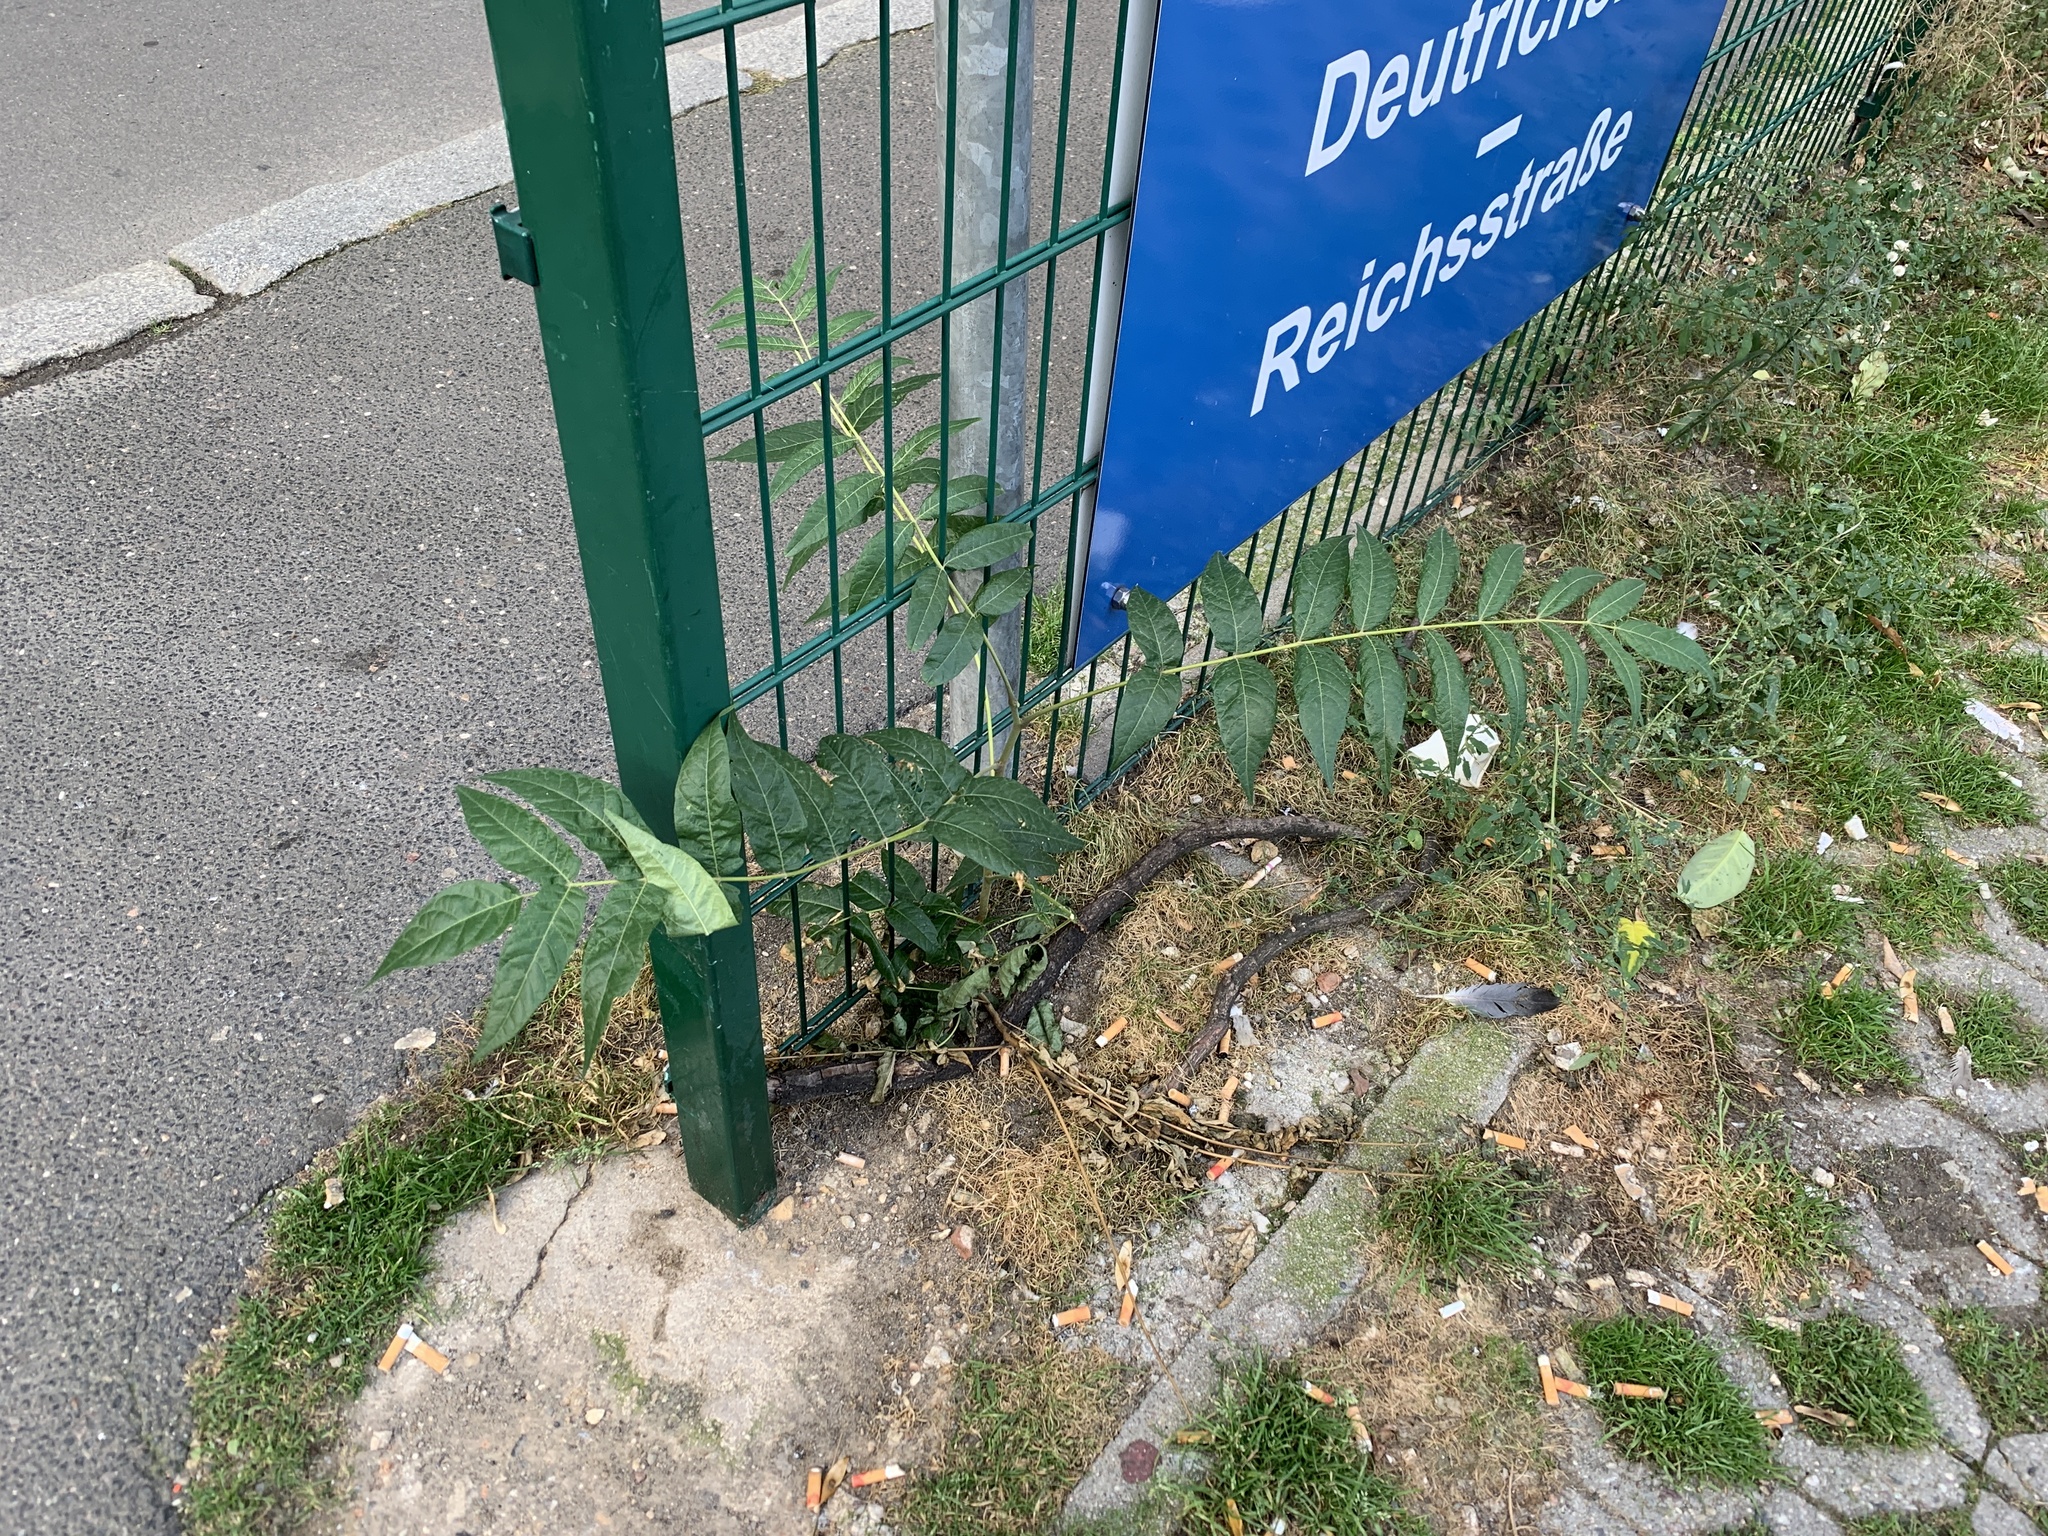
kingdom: Plantae
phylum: Tracheophyta
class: Magnoliopsida
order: Sapindales
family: Simaroubaceae
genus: Ailanthus
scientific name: Ailanthus altissima
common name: Tree-of-heaven
